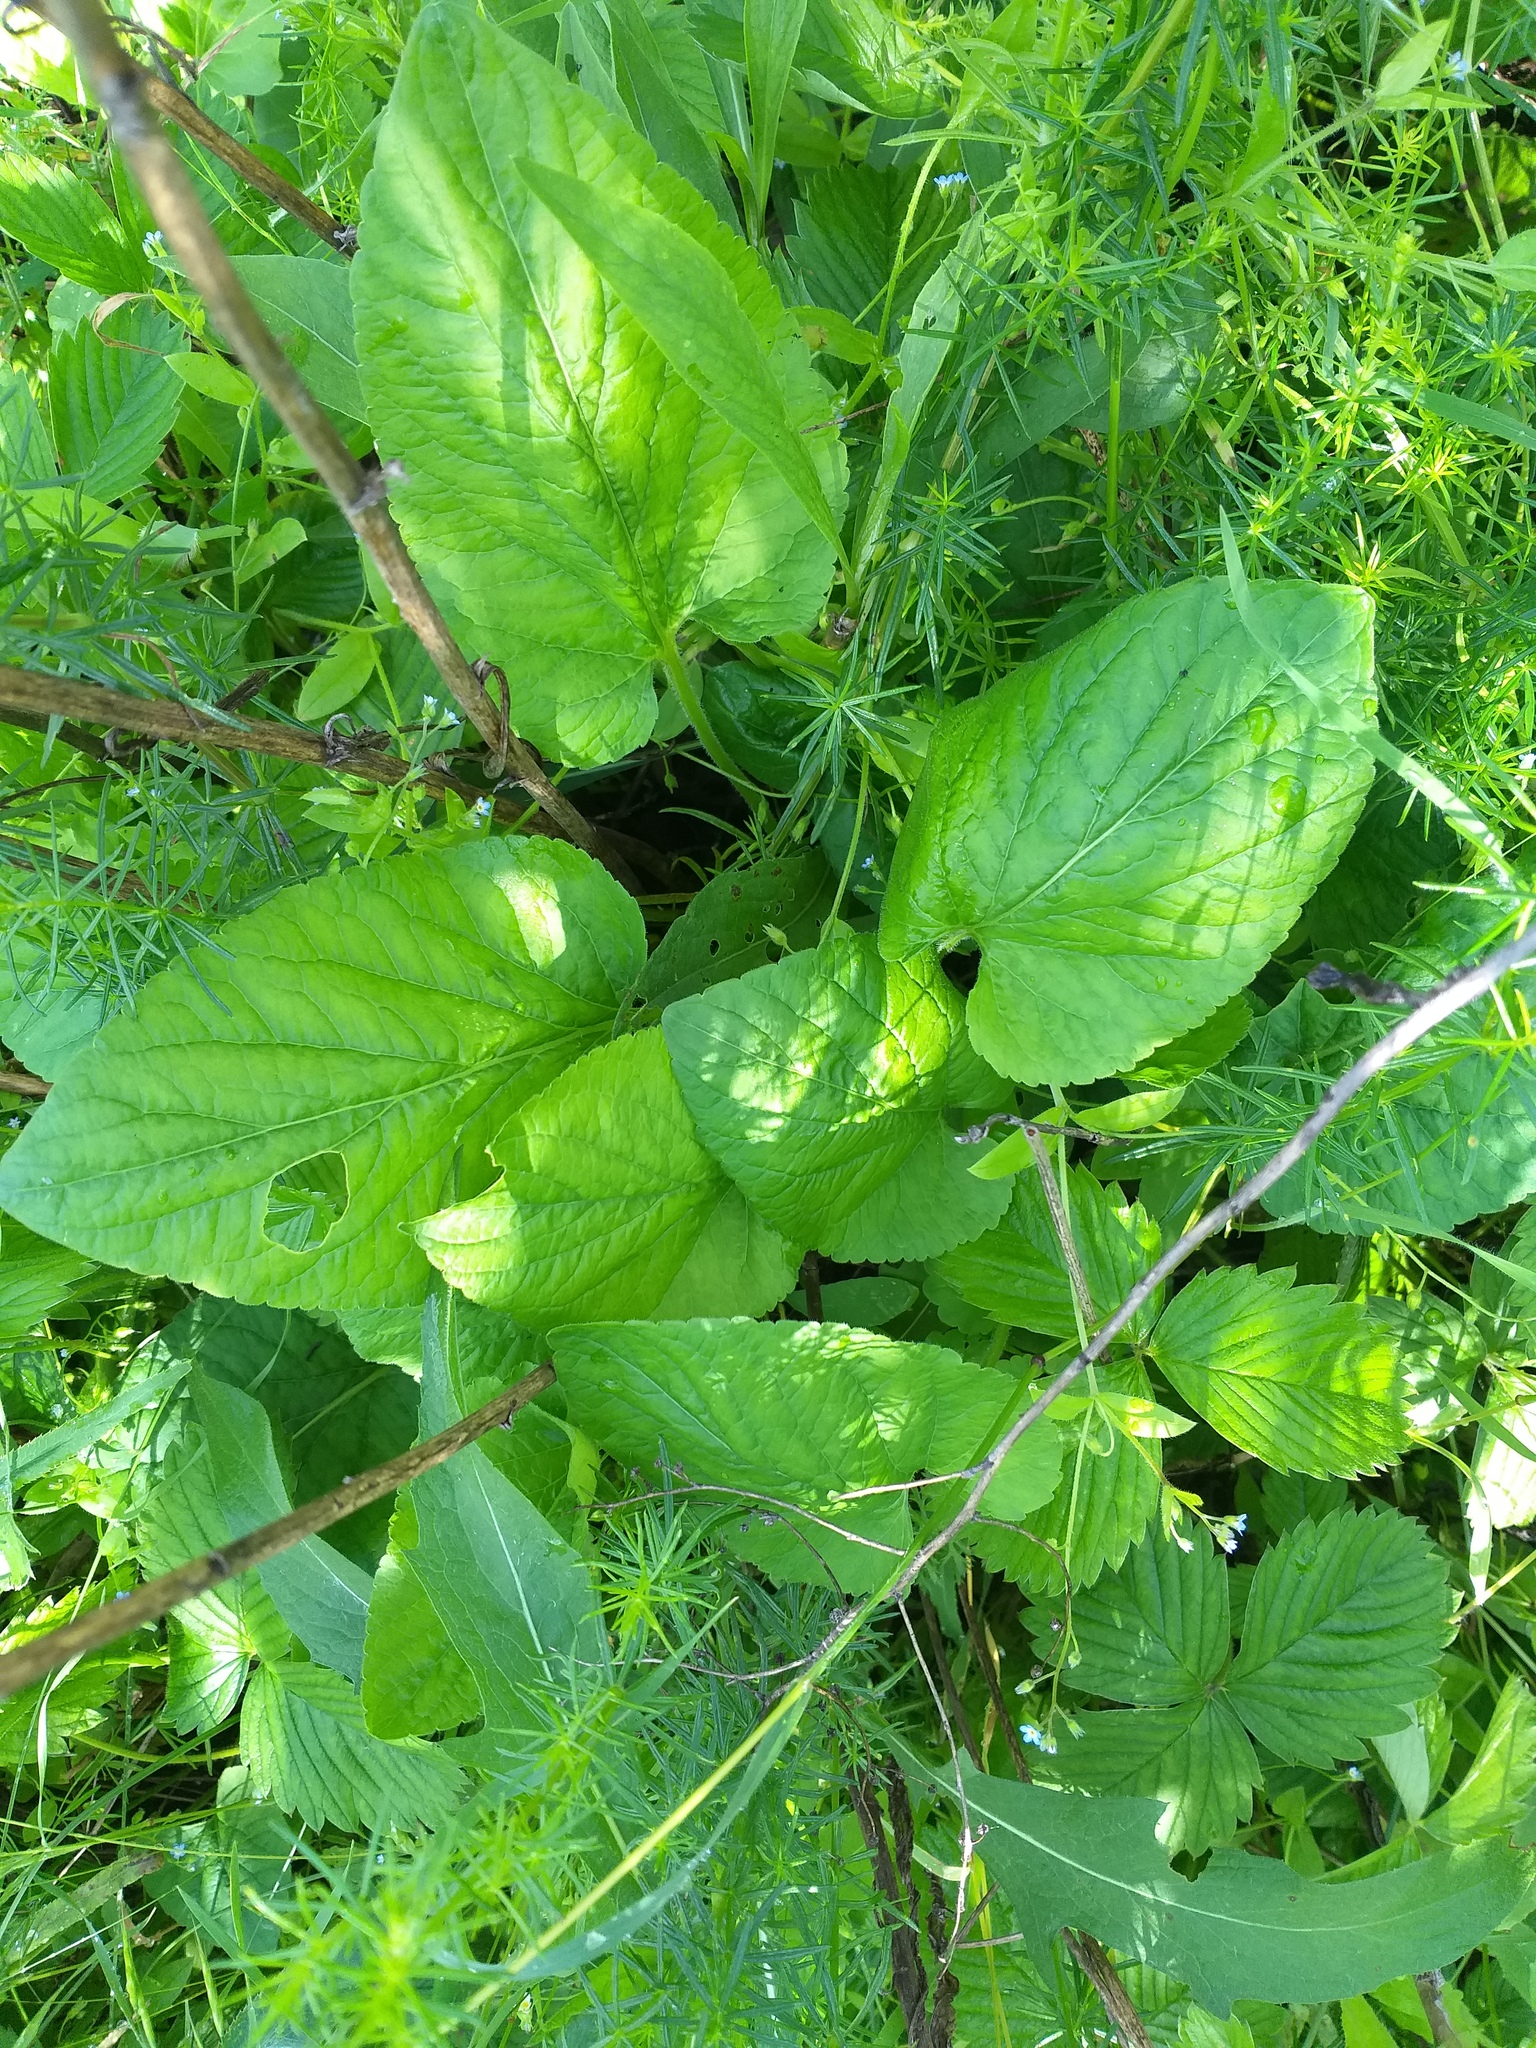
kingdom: Plantae
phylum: Tracheophyta
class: Magnoliopsida
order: Malpighiales
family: Violaceae
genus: Viola
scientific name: Viola hirta
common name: Hairy violet
